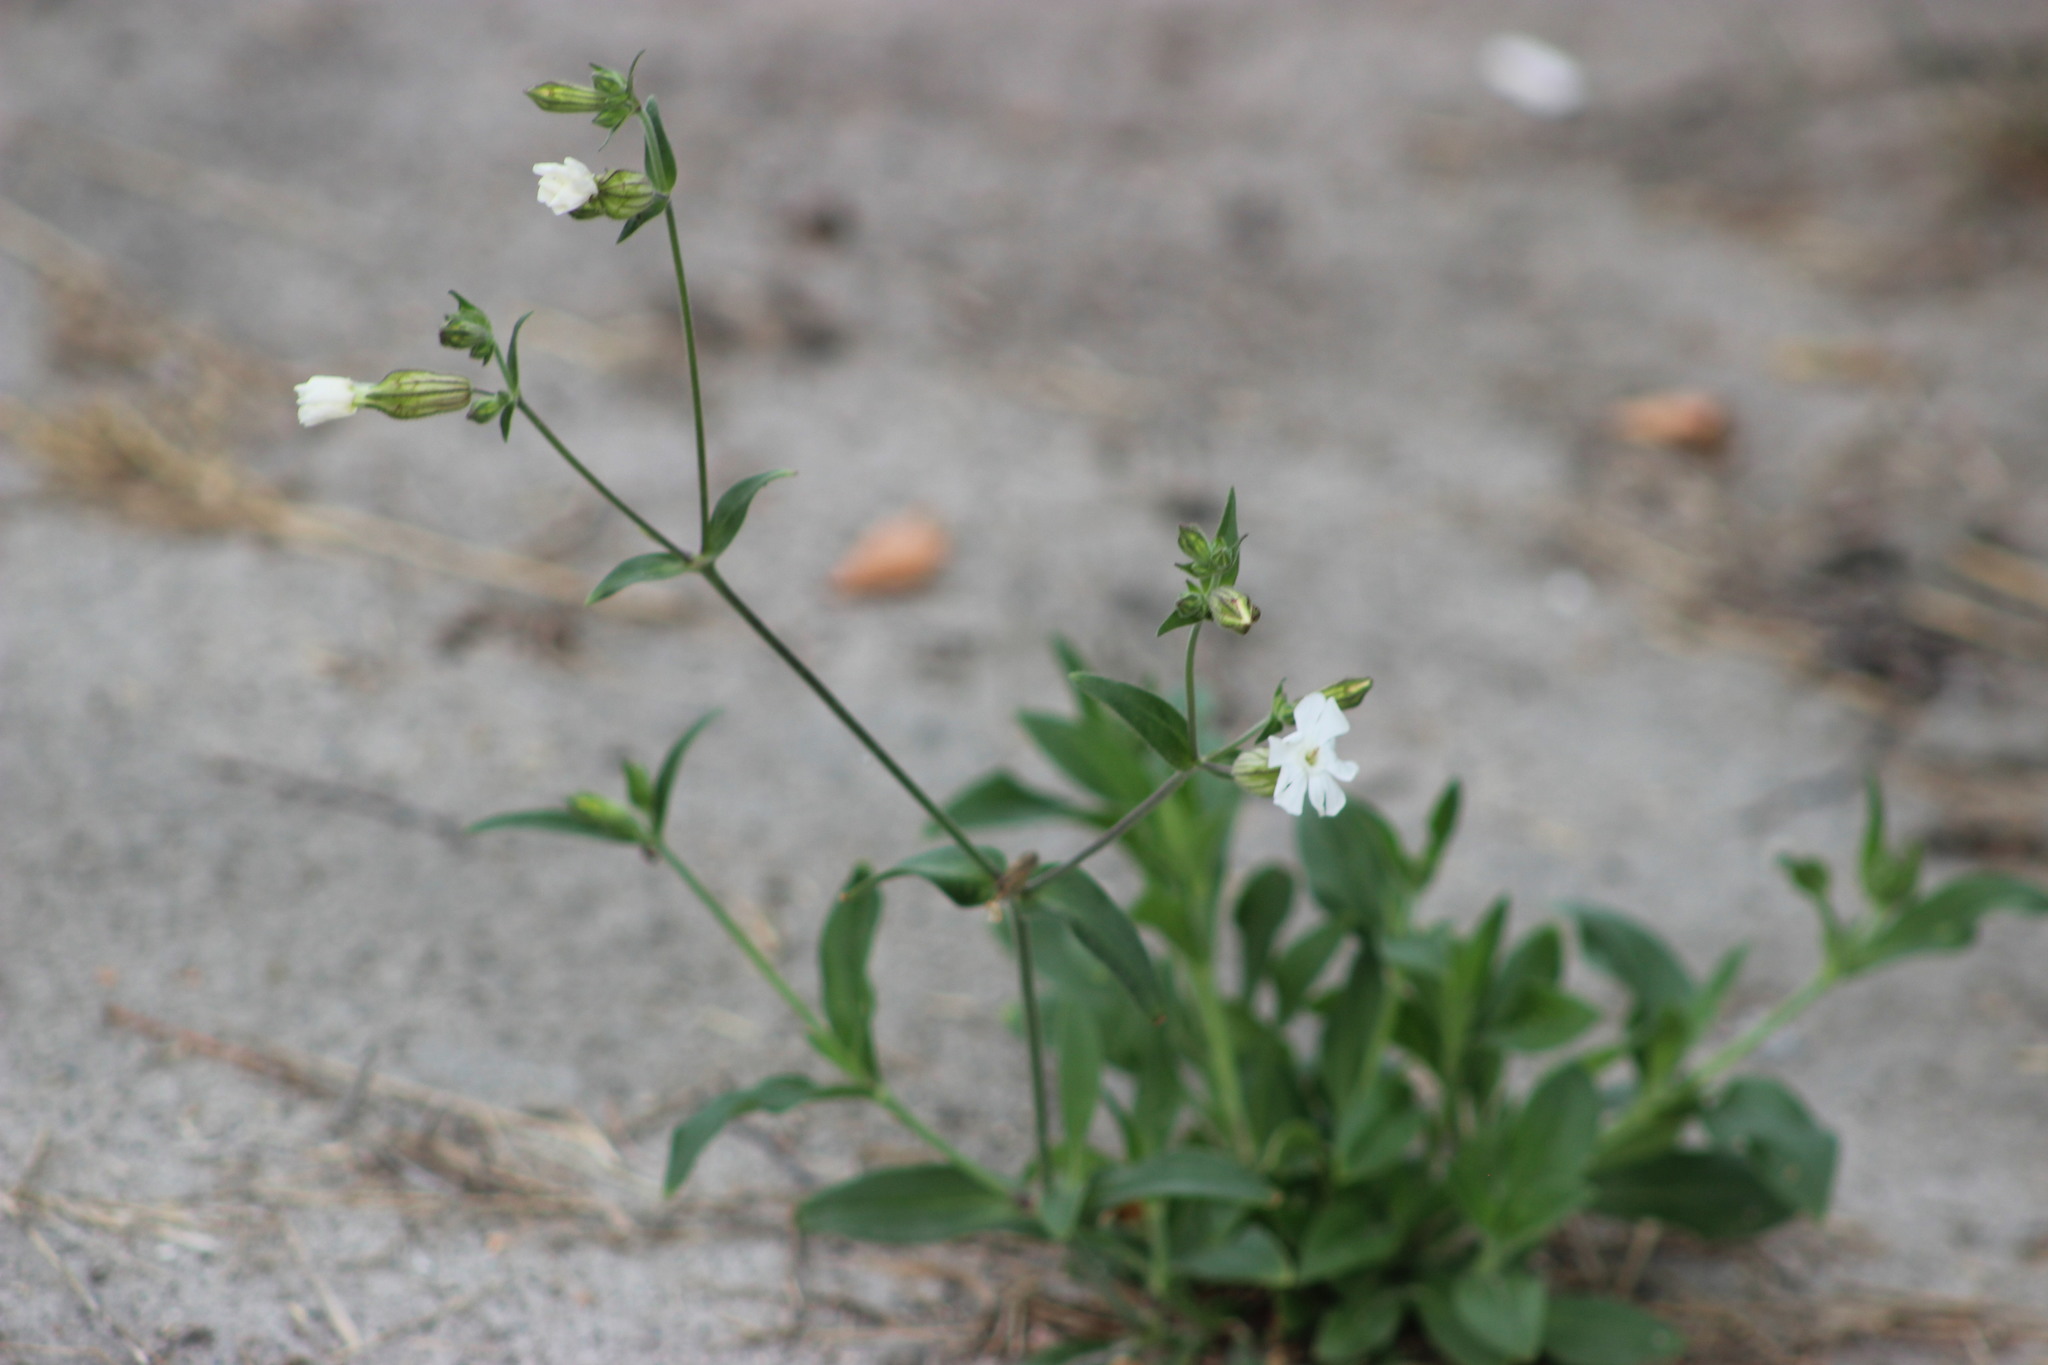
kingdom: Plantae
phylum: Tracheophyta
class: Magnoliopsida
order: Caryophyllales
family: Caryophyllaceae
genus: Silene
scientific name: Silene latifolia
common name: White campion
